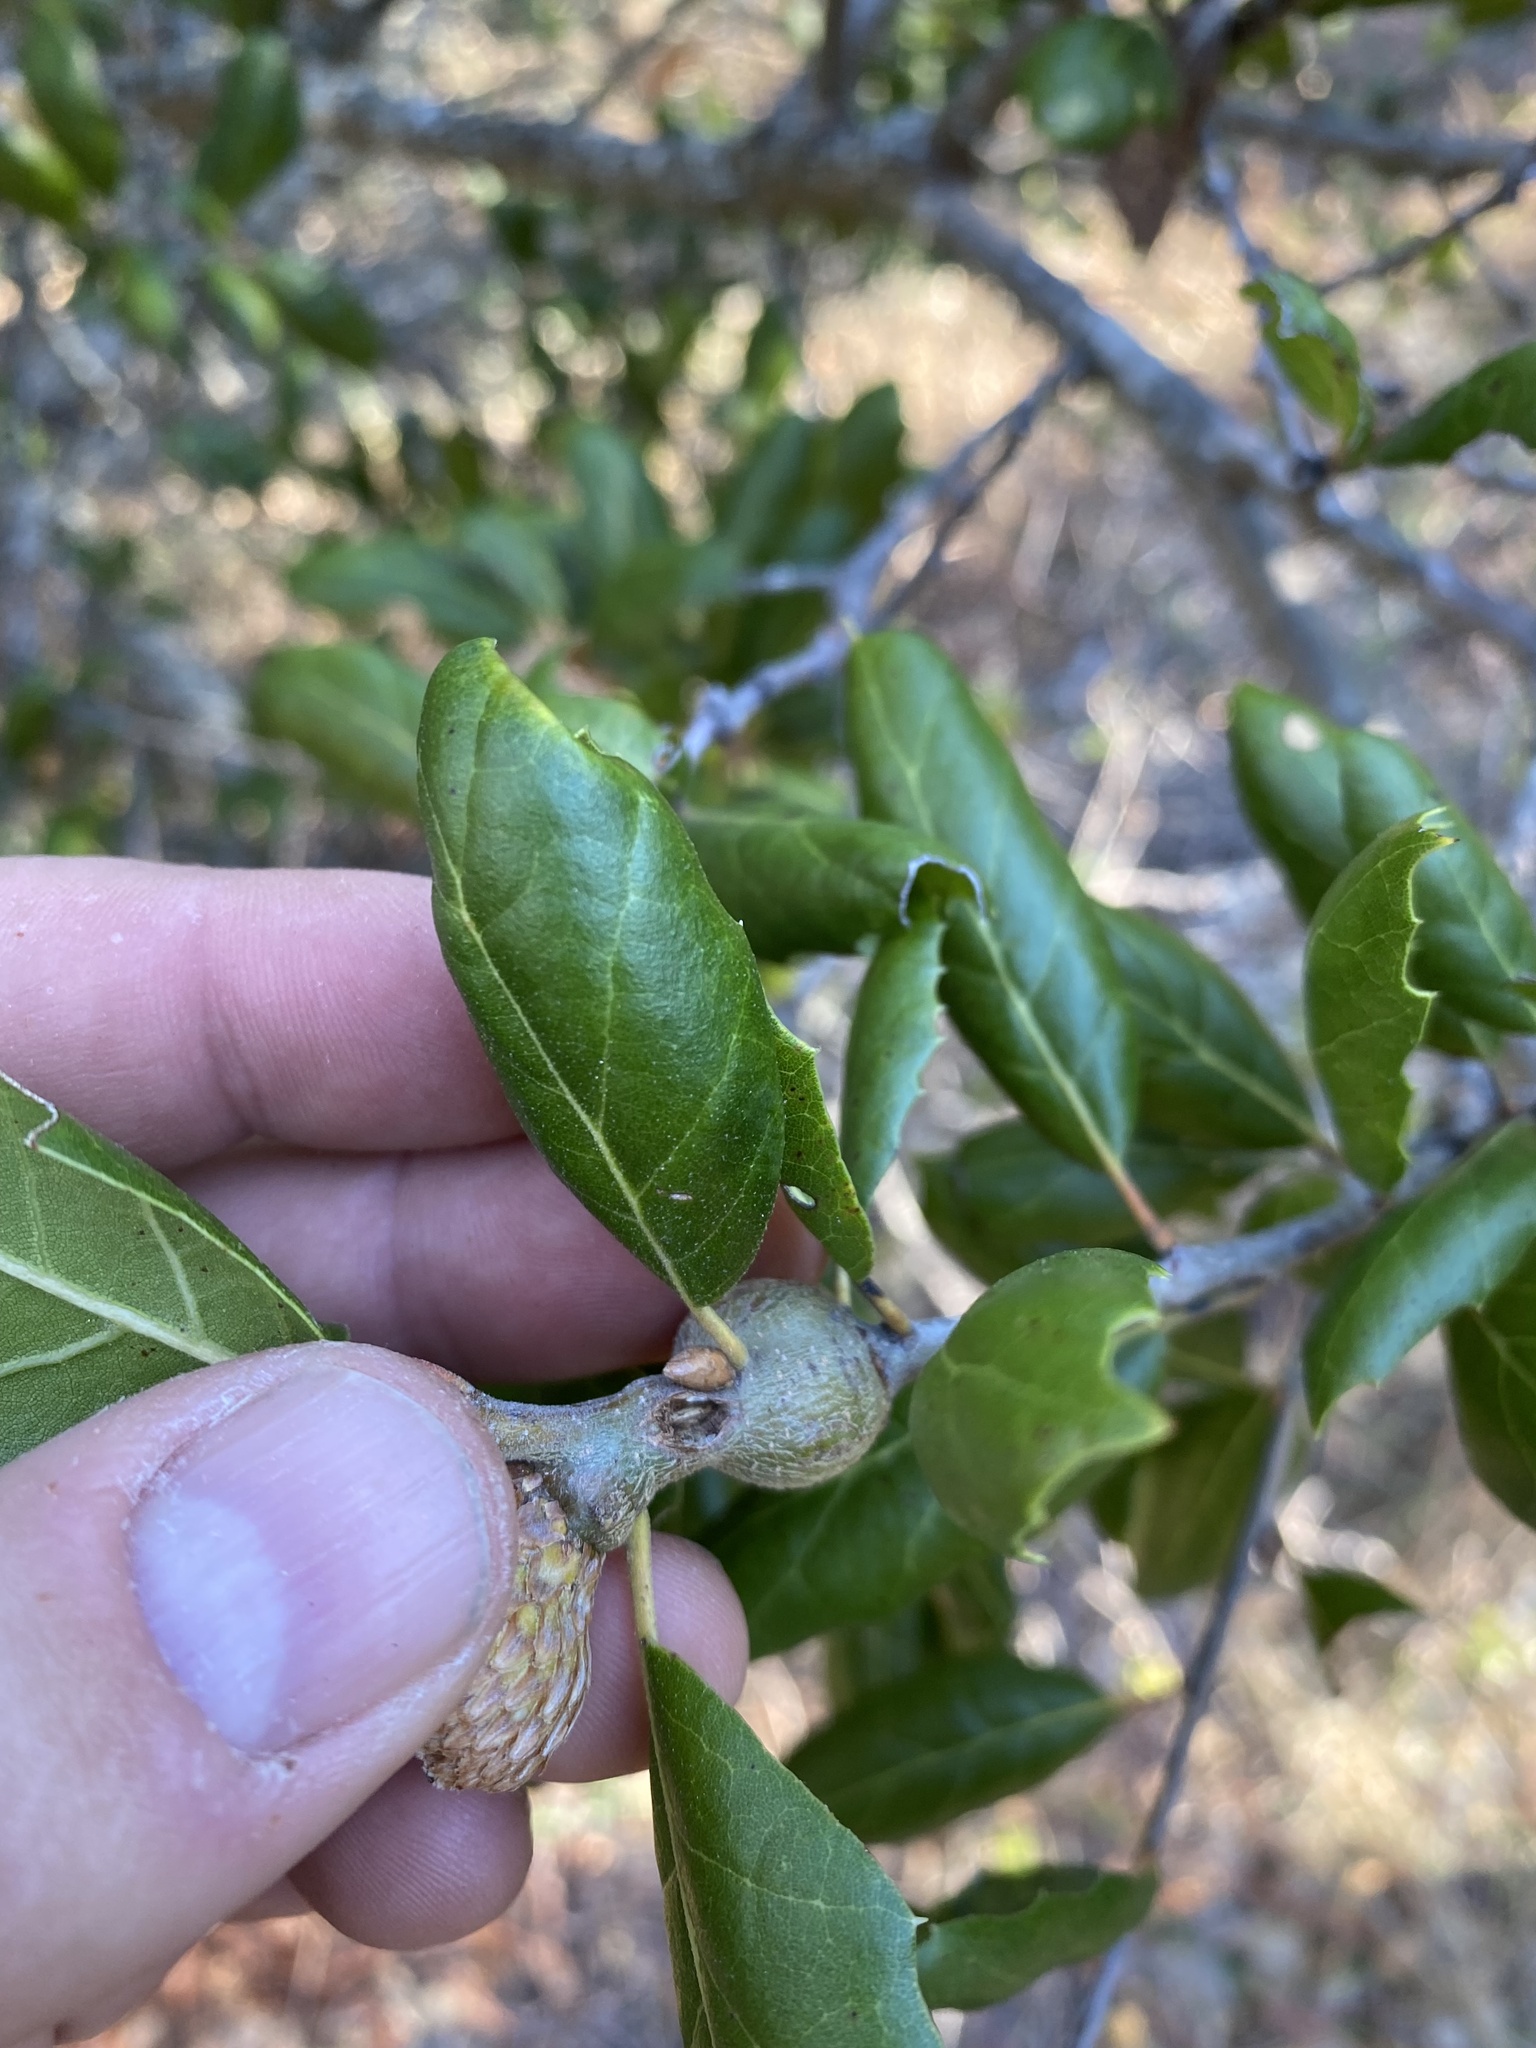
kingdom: Plantae
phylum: Tracheophyta
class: Magnoliopsida
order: Fagales
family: Fagaceae
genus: Quercus
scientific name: Quercus agrifolia
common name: California live oak
